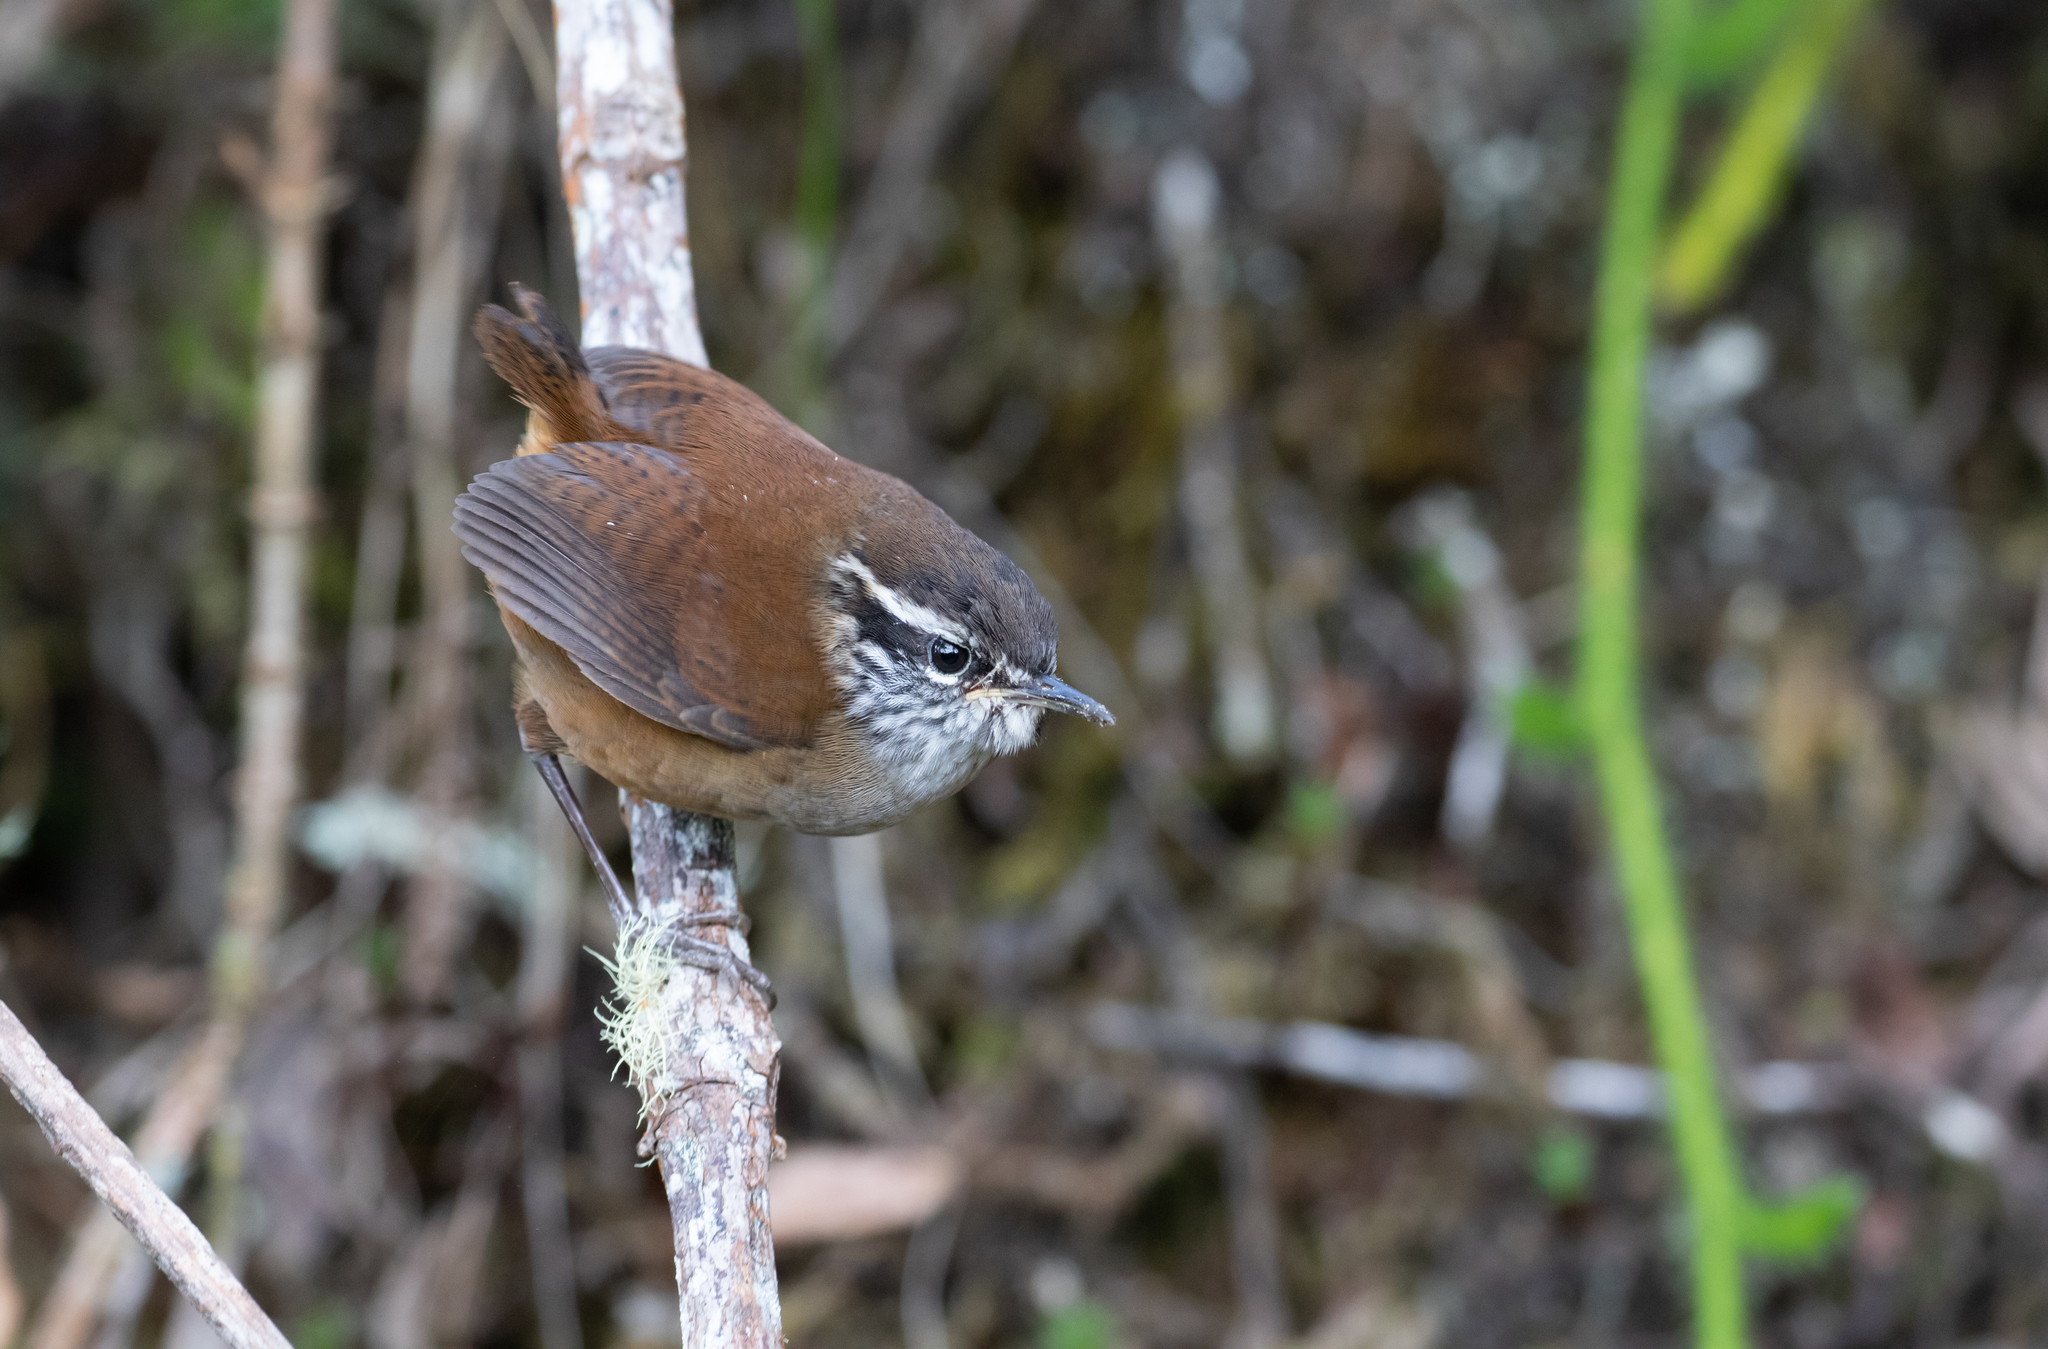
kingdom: Animalia
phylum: Chordata
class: Aves
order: Passeriformes
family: Troglodytidae
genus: Henicorhina
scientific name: Henicorhina anachoreta
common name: Hermit wood-wren
